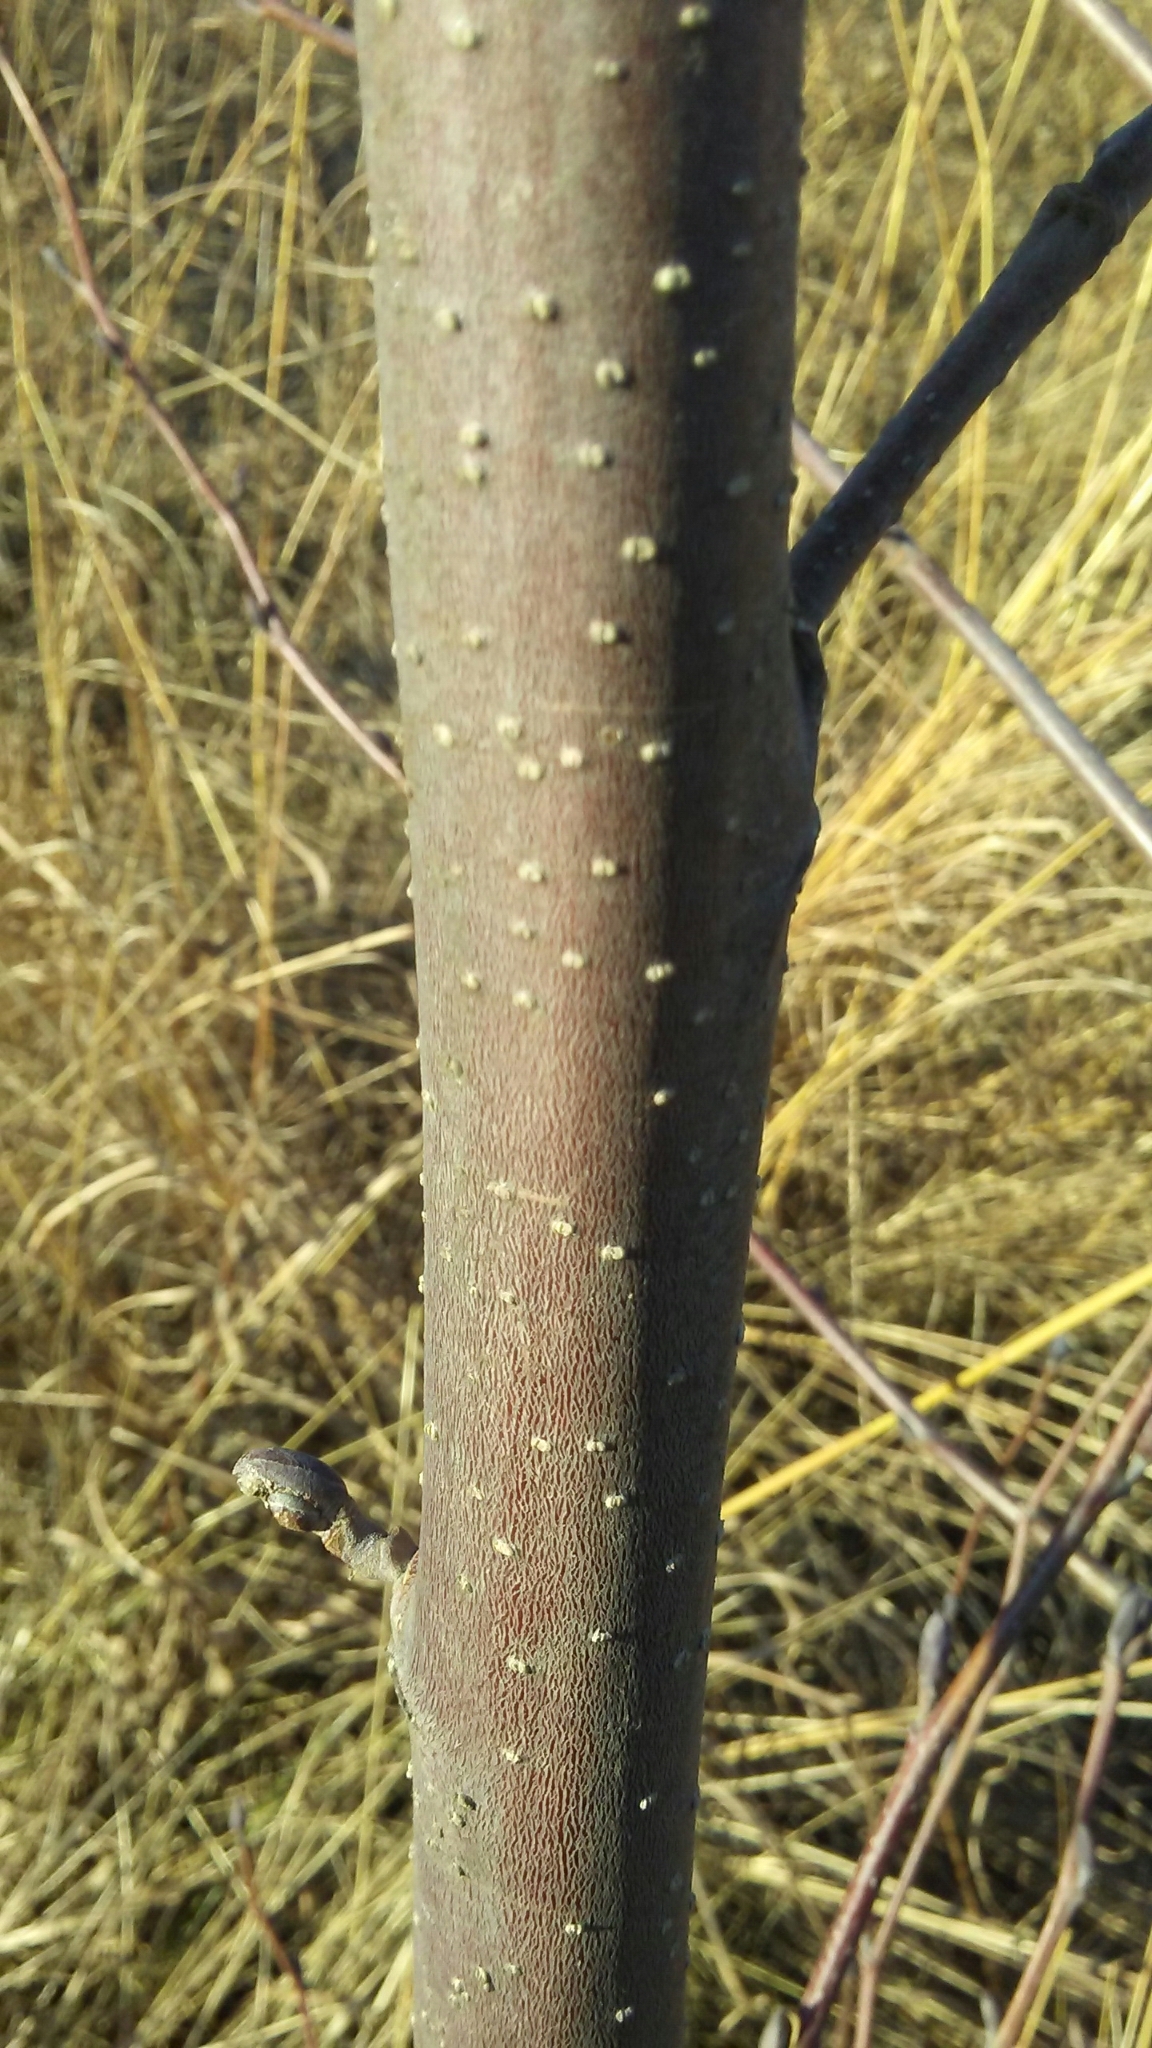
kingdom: Plantae
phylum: Tracheophyta
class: Magnoliopsida
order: Fagales
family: Betulaceae
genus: Alnus
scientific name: Alnus glutinosa
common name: Black alder
